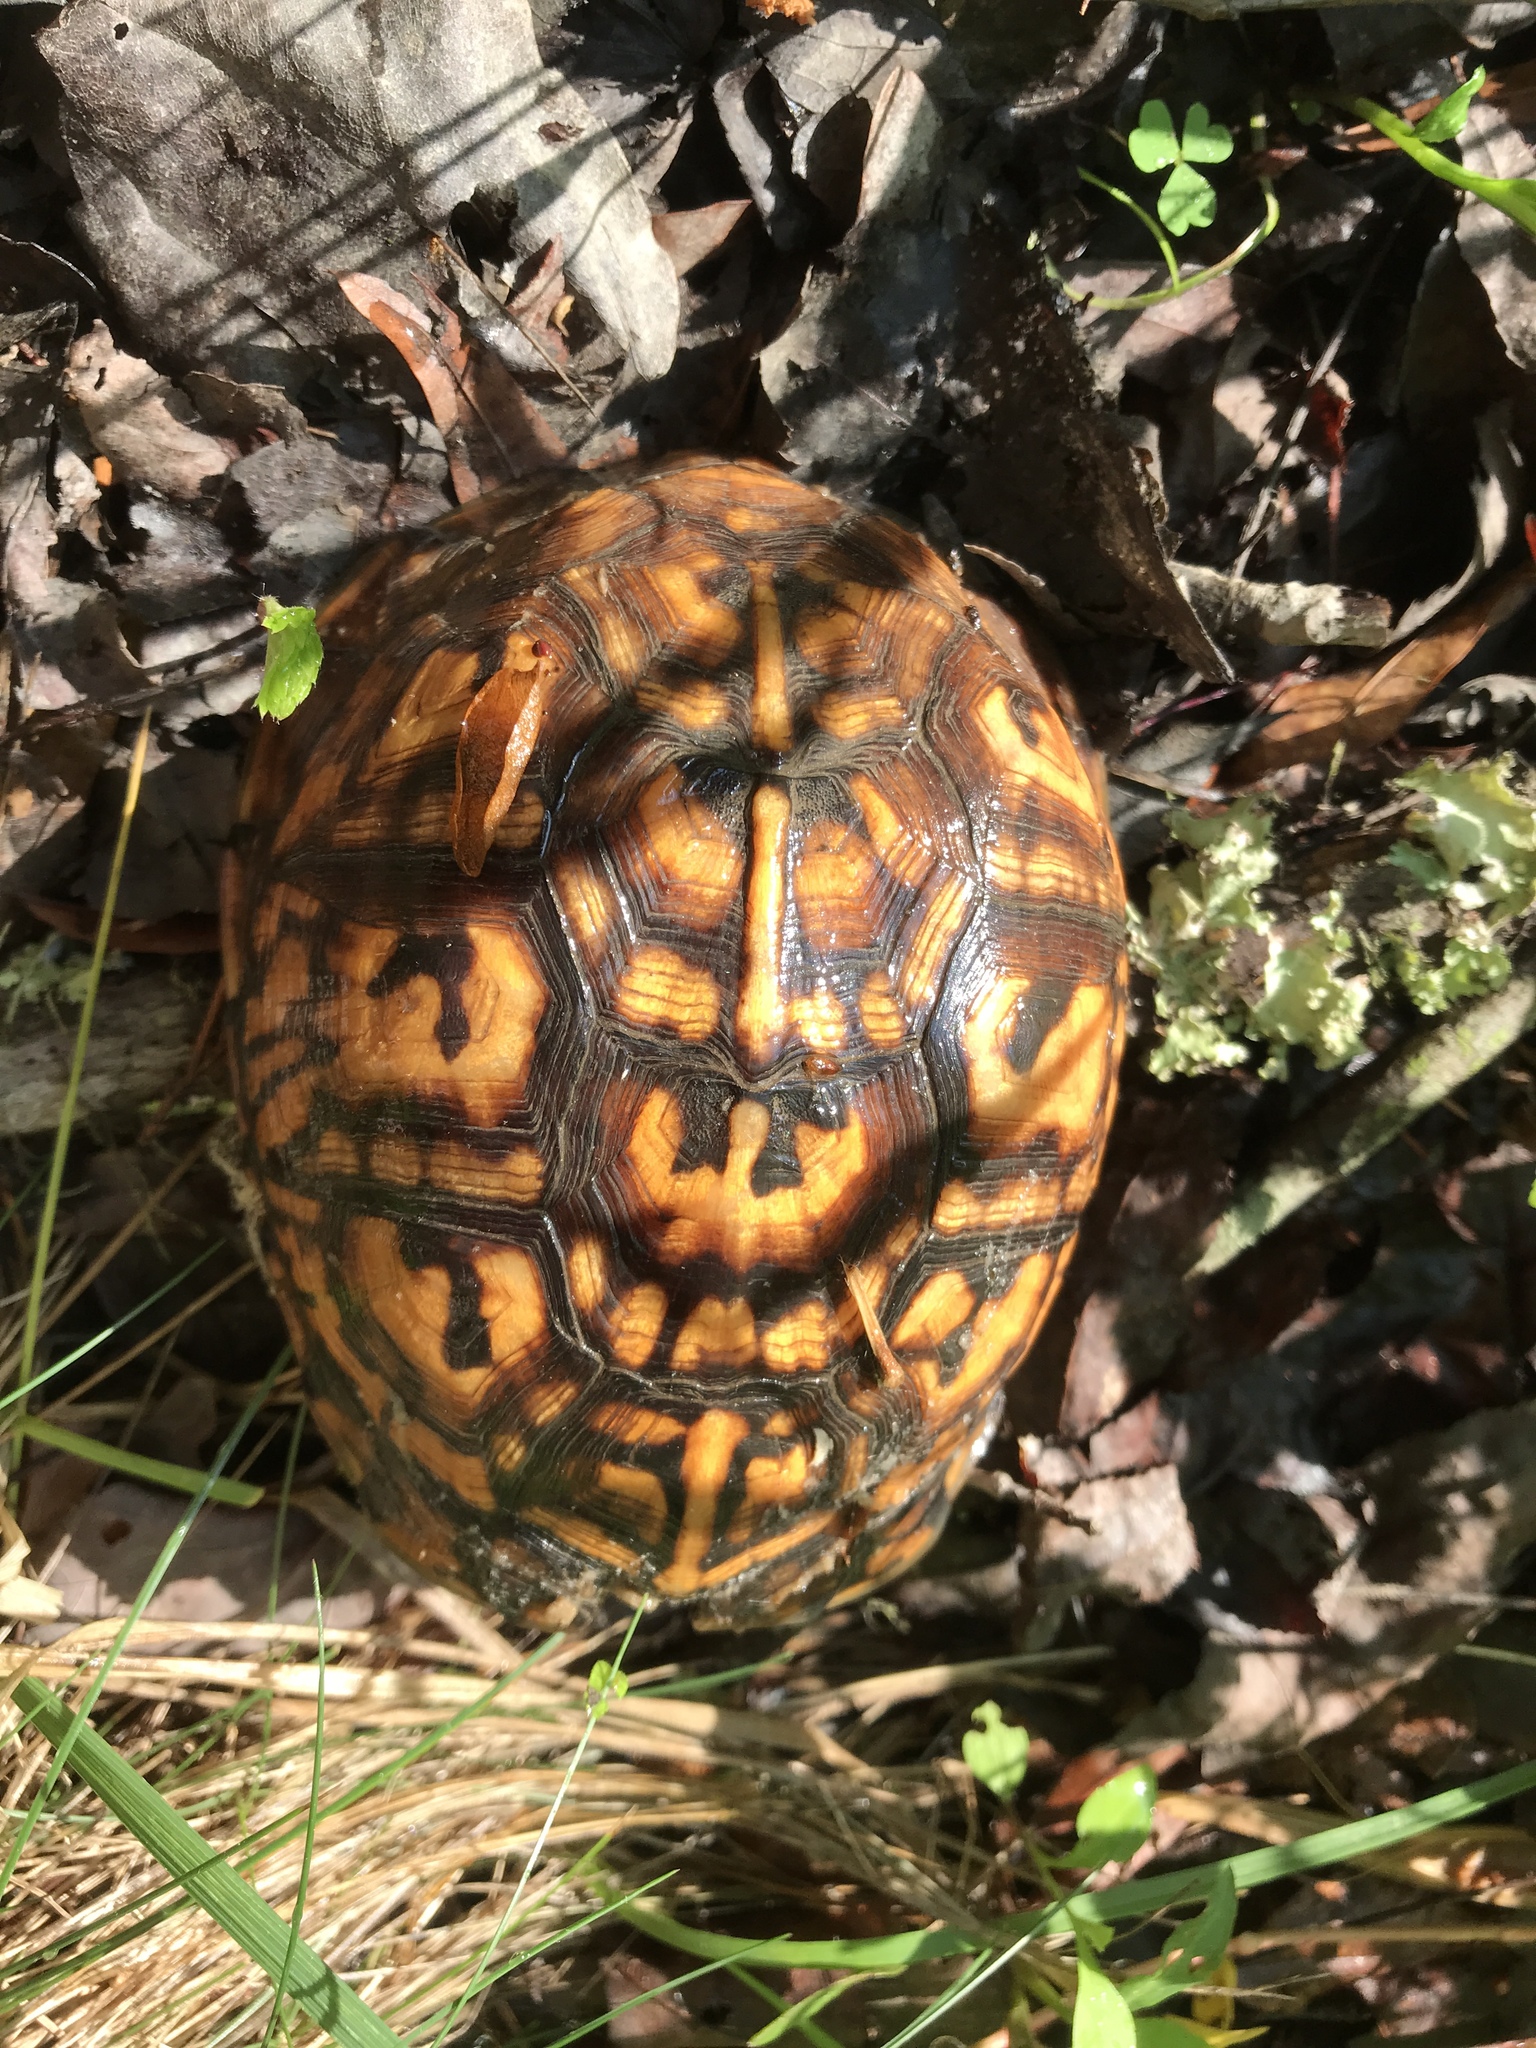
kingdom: Animalia
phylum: Chordata
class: Testudines
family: Emydidae
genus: Terrapene
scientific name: Terrapene carolina
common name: Common box turtle
